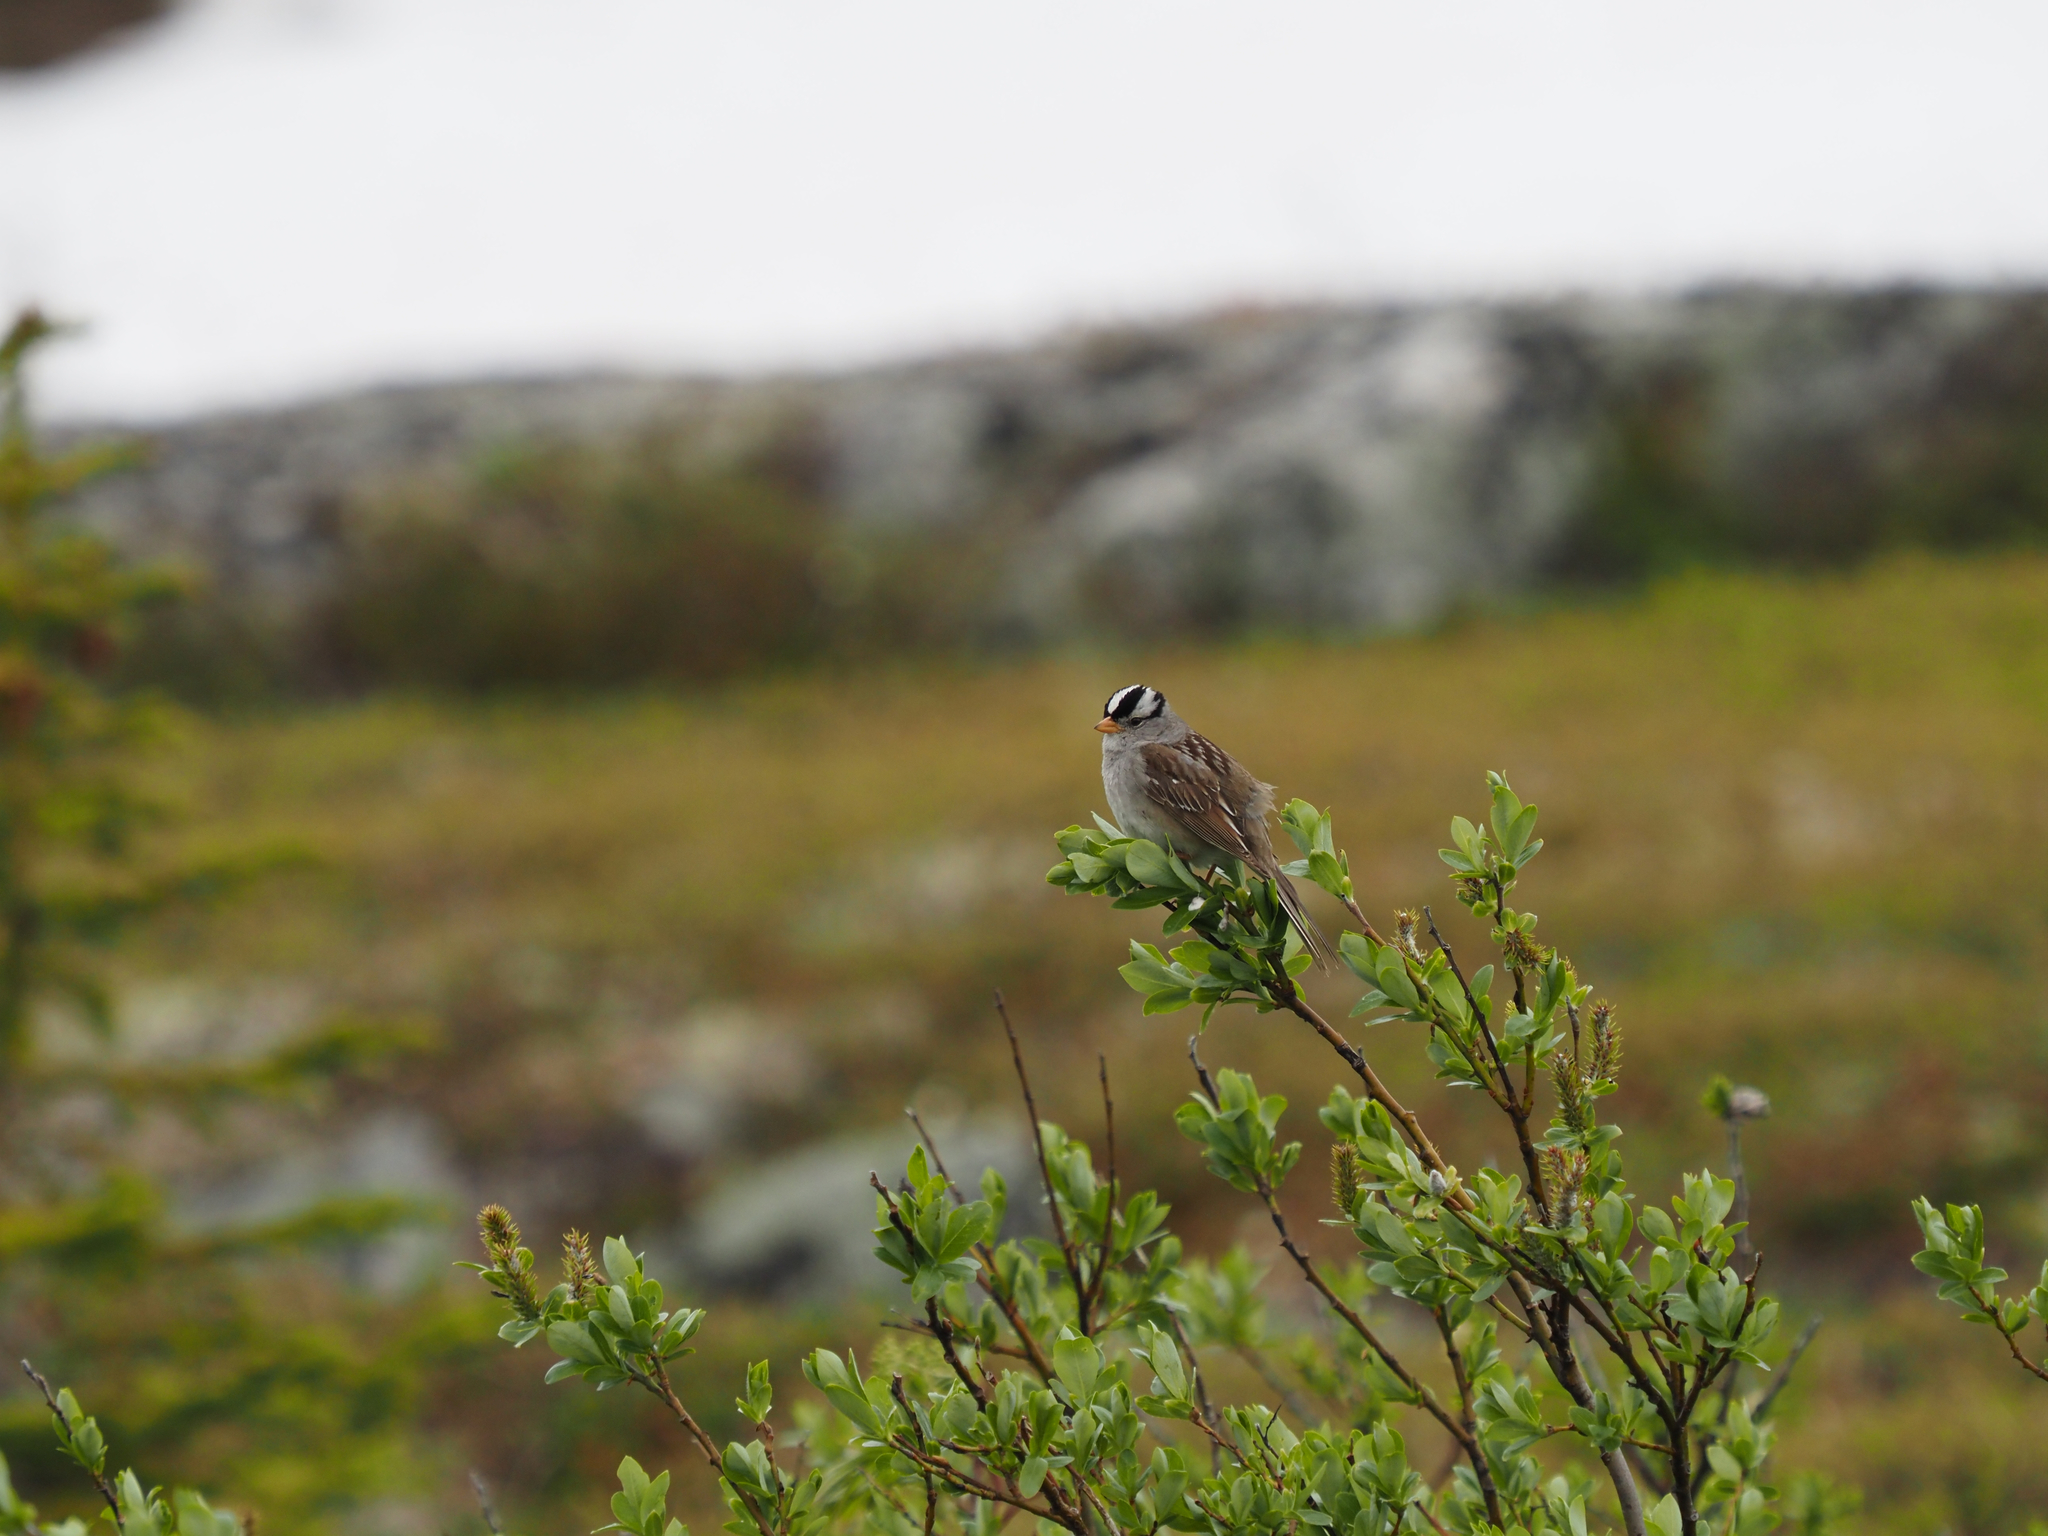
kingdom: Animalia
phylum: Chordata
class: Aves
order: Passeriformes
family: Passerellidae
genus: Zonotrichia
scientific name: Zonotrichia leucophrys
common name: White-crowned sparrow
